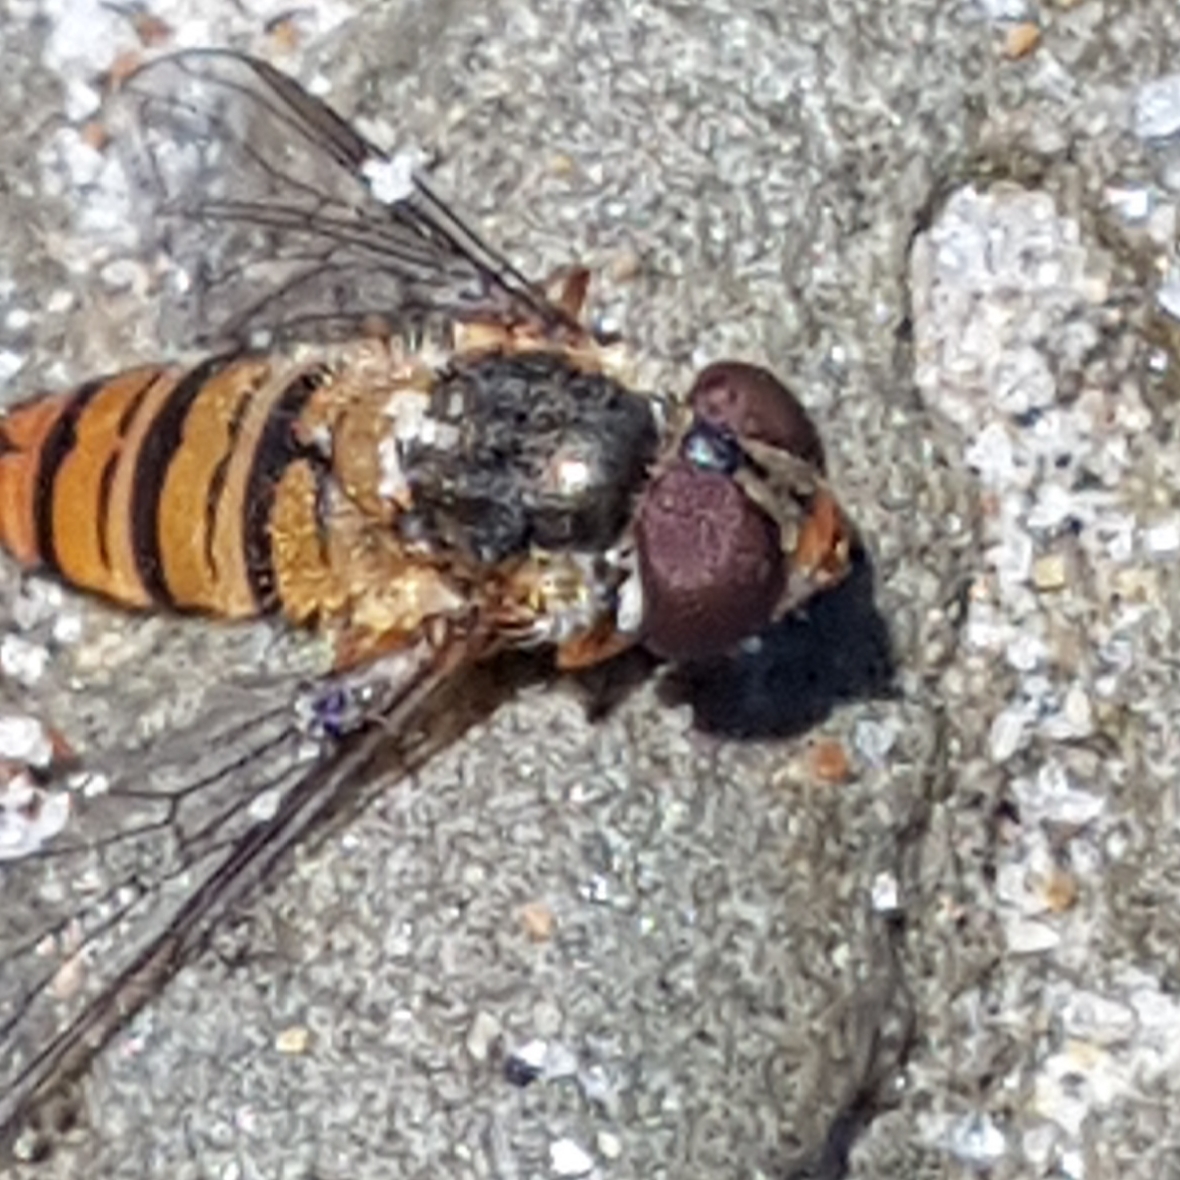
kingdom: Animalia
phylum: Arthropoda
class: Insecta
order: Diptera
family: Syrphidae
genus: Episyrphus
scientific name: Episyrphus balteatus
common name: Marmalade hoverfly
